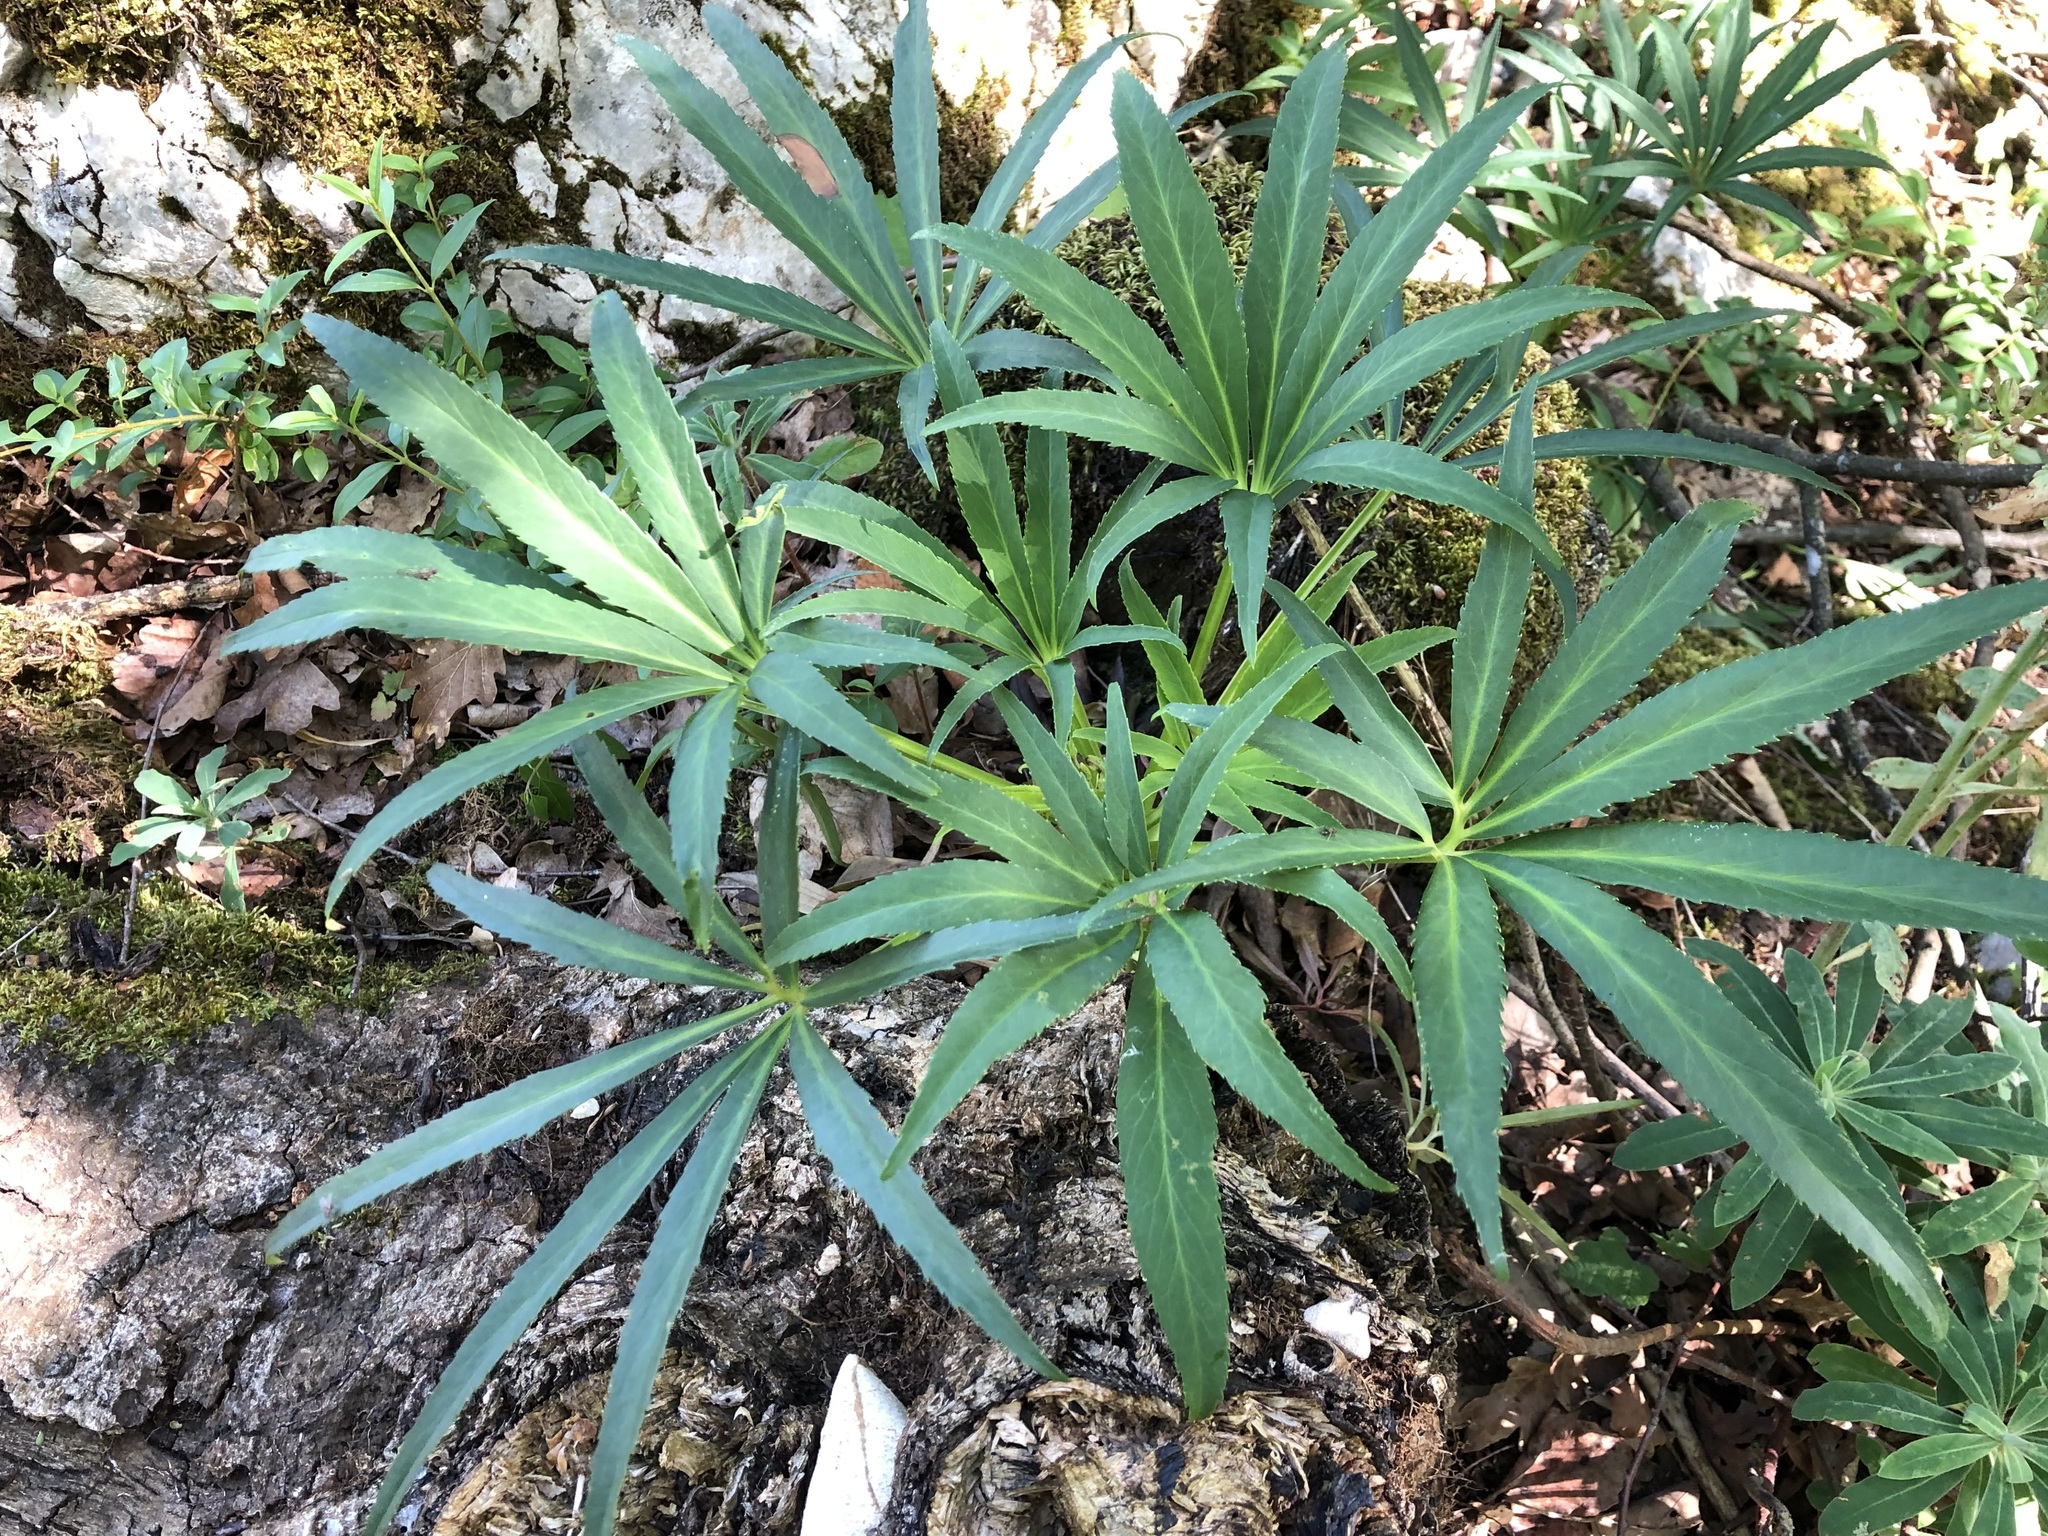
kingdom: Plantae
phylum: Tracheophyta
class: Magnoliopsida
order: Ranunculales
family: Ranunculaceae
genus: Helleborus
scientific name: Helleborus foetidus
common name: Stinking hellebore
